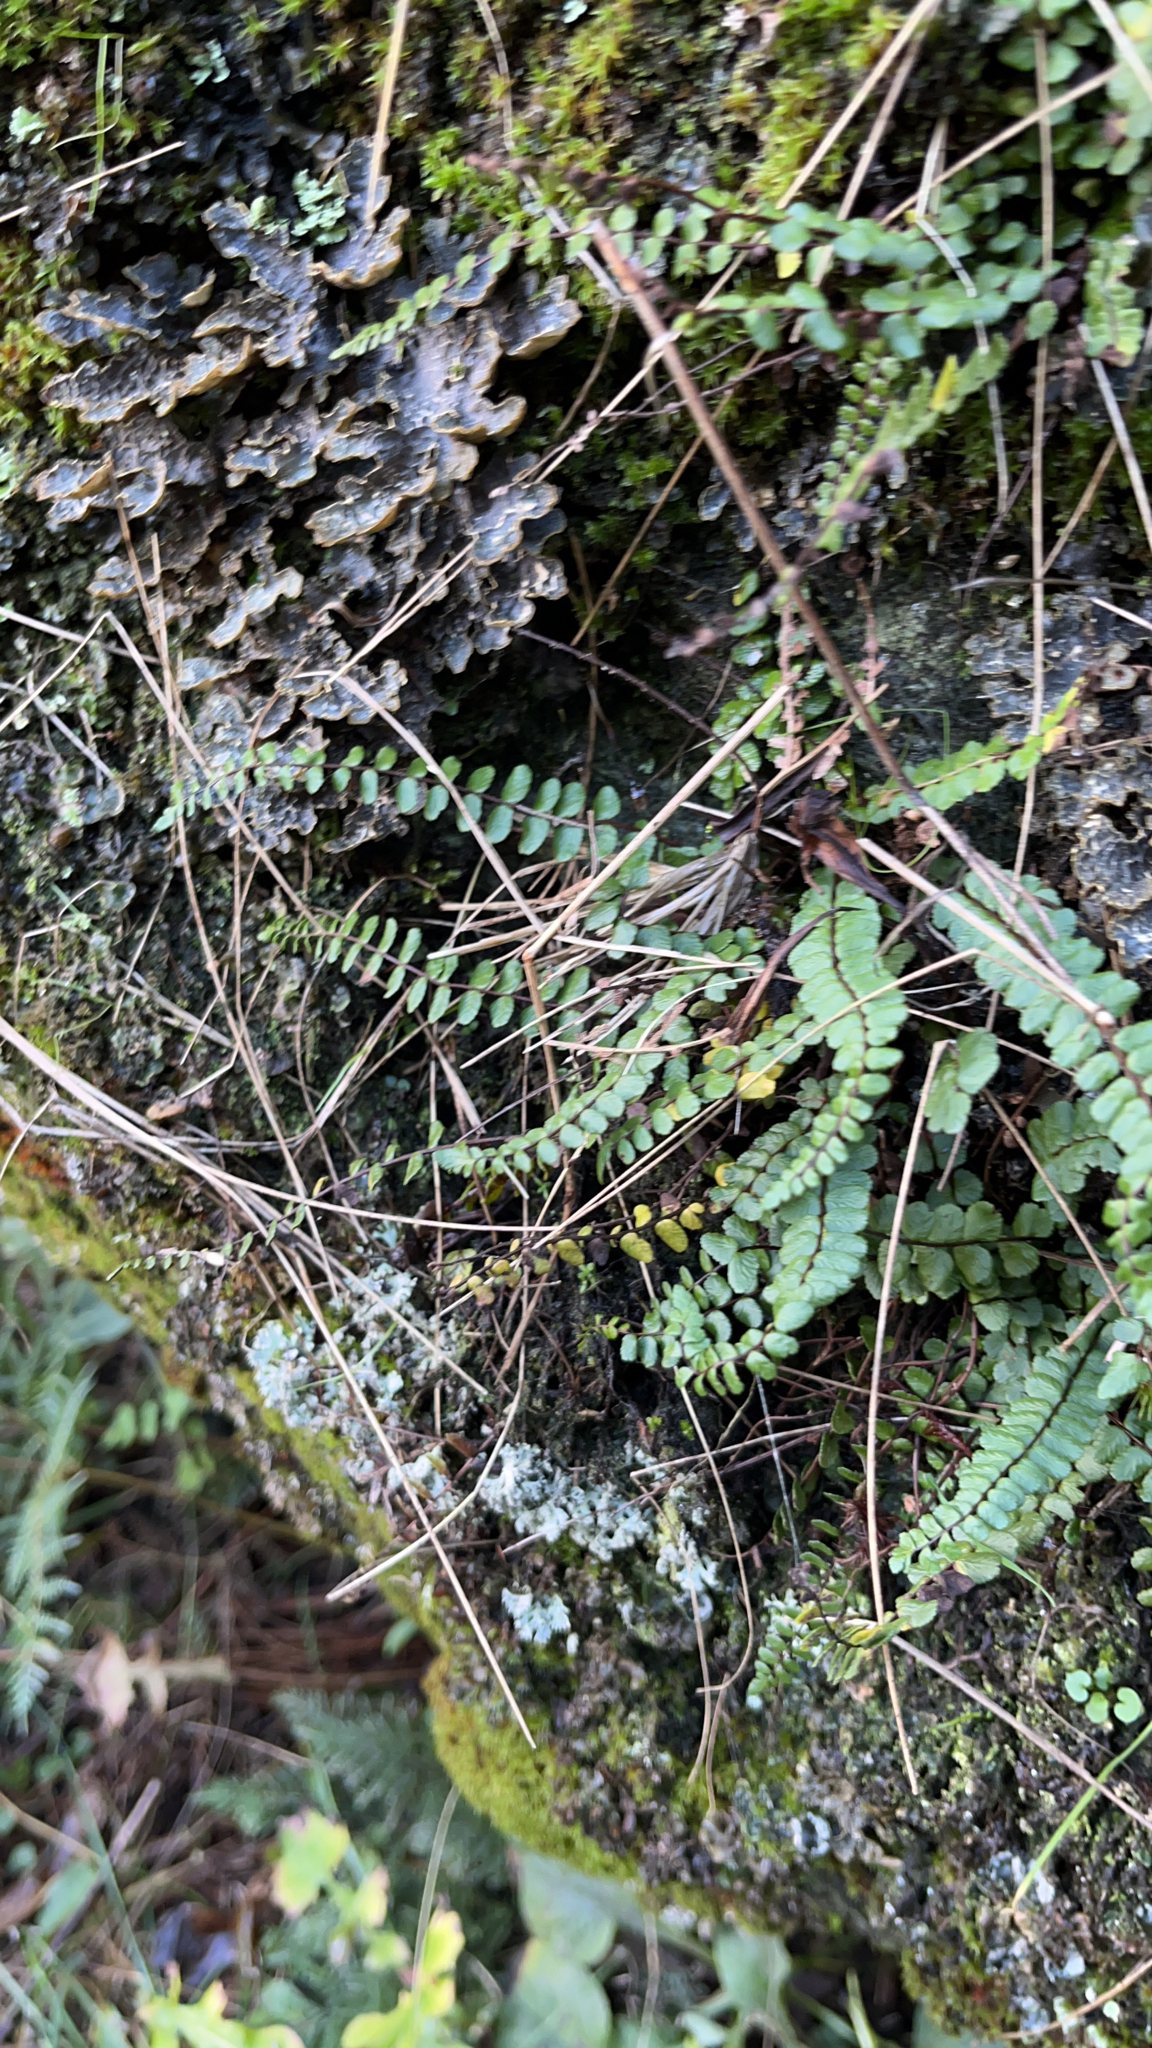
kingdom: Plantae
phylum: Tracheophyta
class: Polypodiopsida
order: Polypodiales
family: Aspleniaceae
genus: Asplenium
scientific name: Asplenium trichomanes
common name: Maidenhair spleenwort
